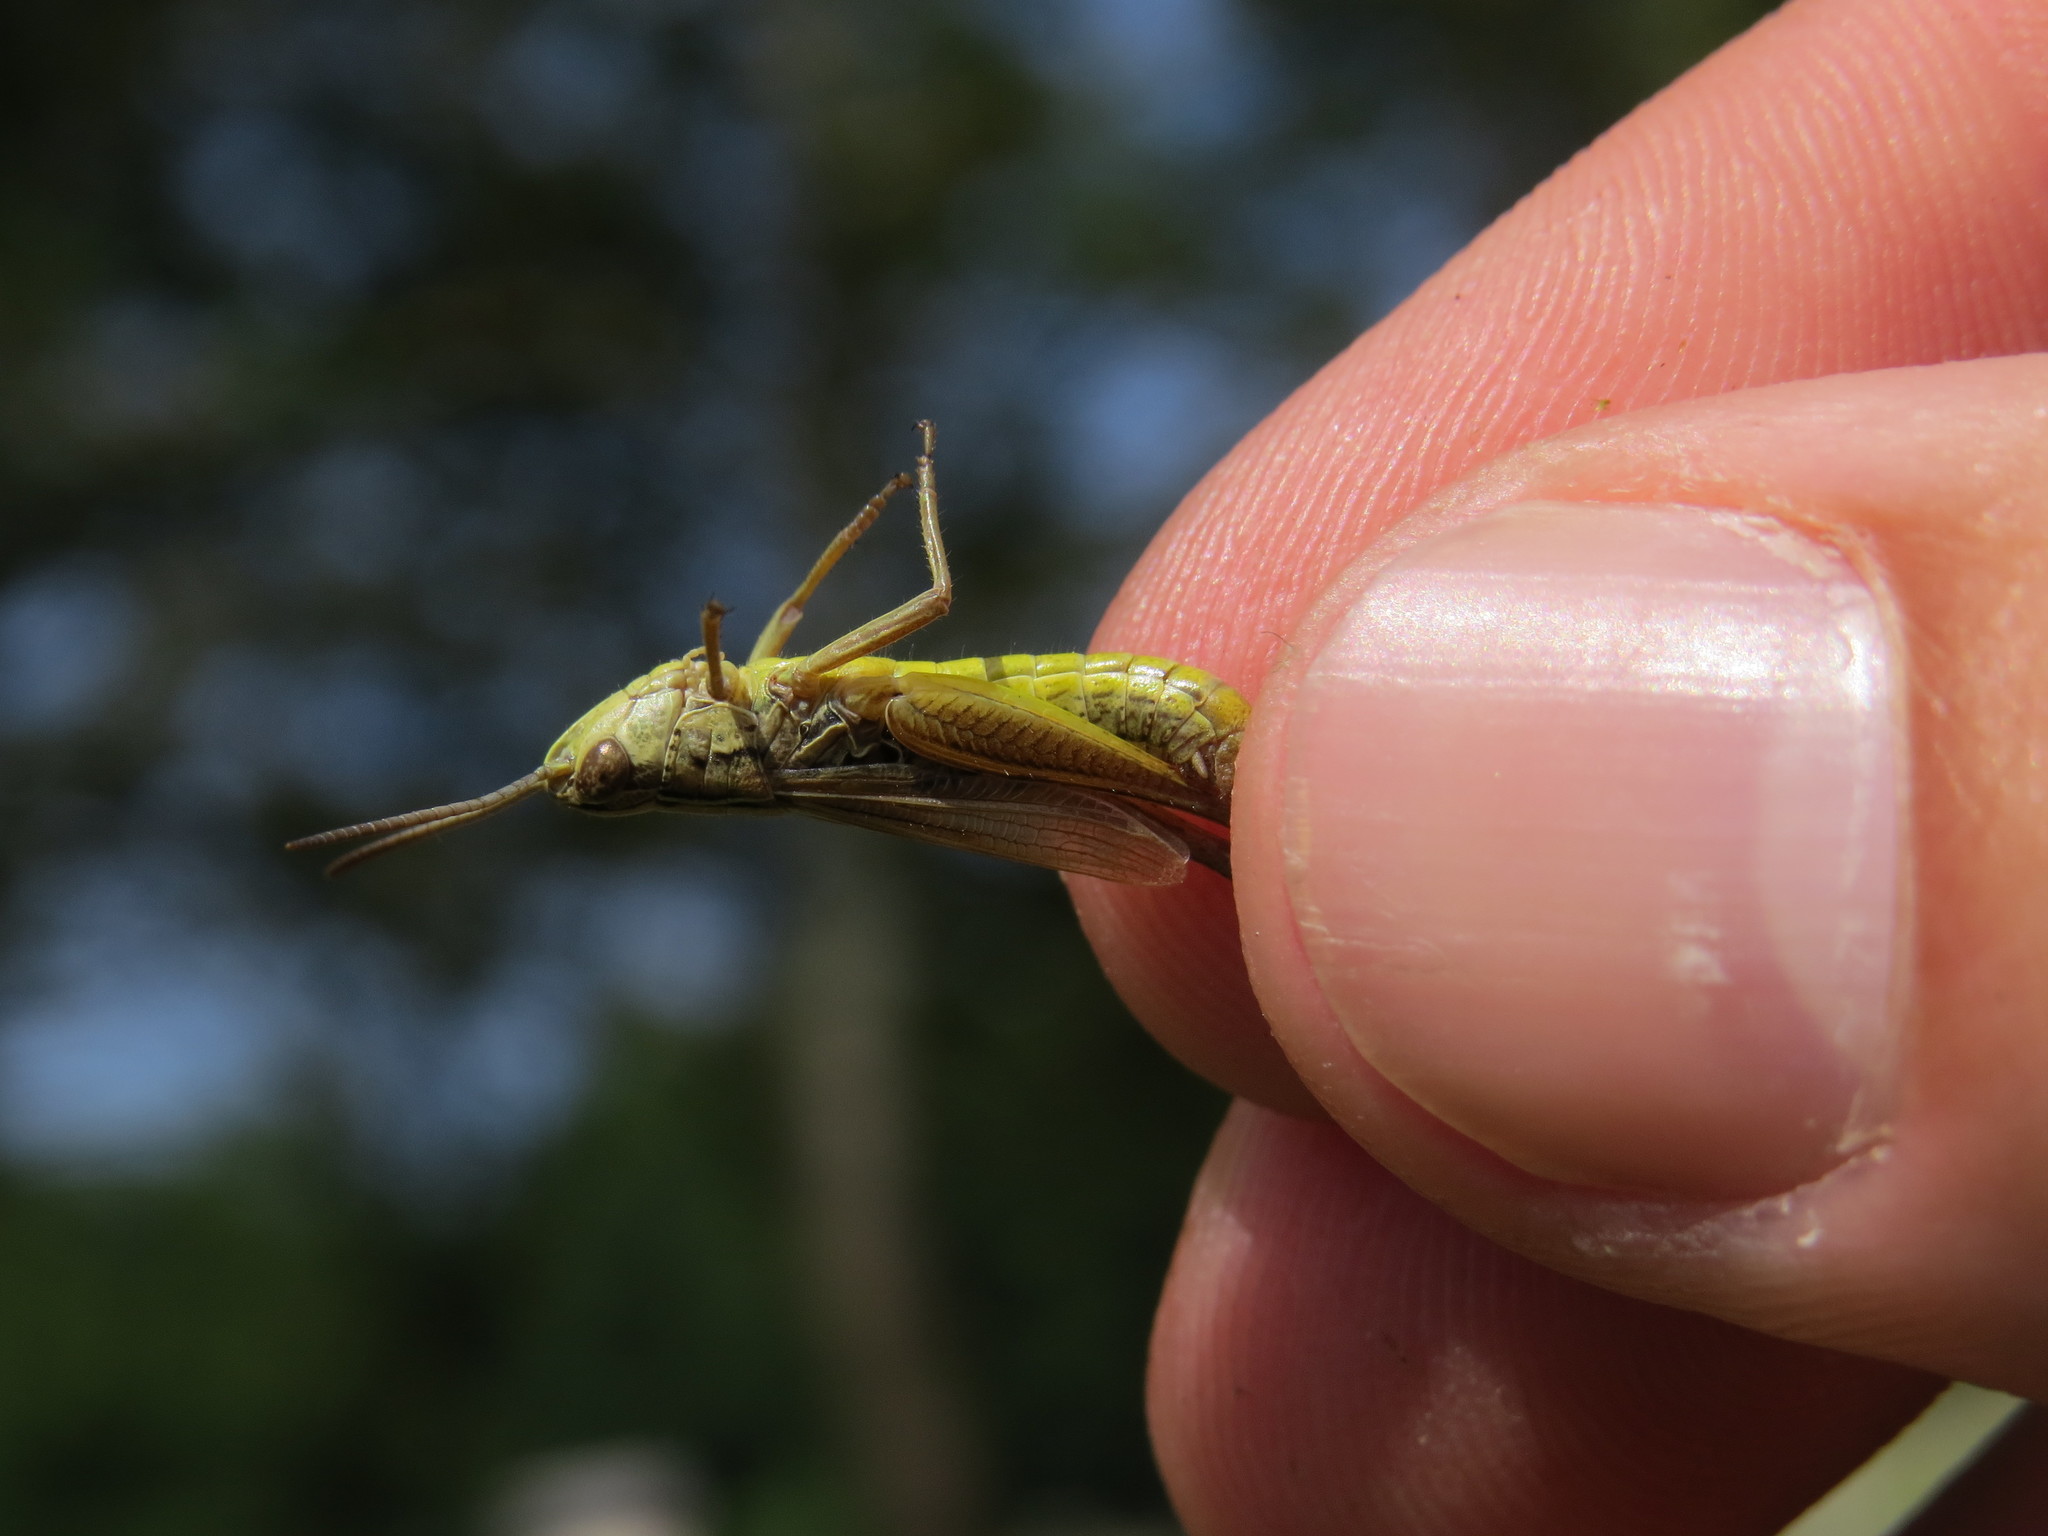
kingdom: Animalia
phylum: Arthropoda
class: Insecta
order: Orthoptera
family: Acrididae
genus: Pseudochorthippus
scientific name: Pseudochorthippus parallelus
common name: Meadow grasshopper
